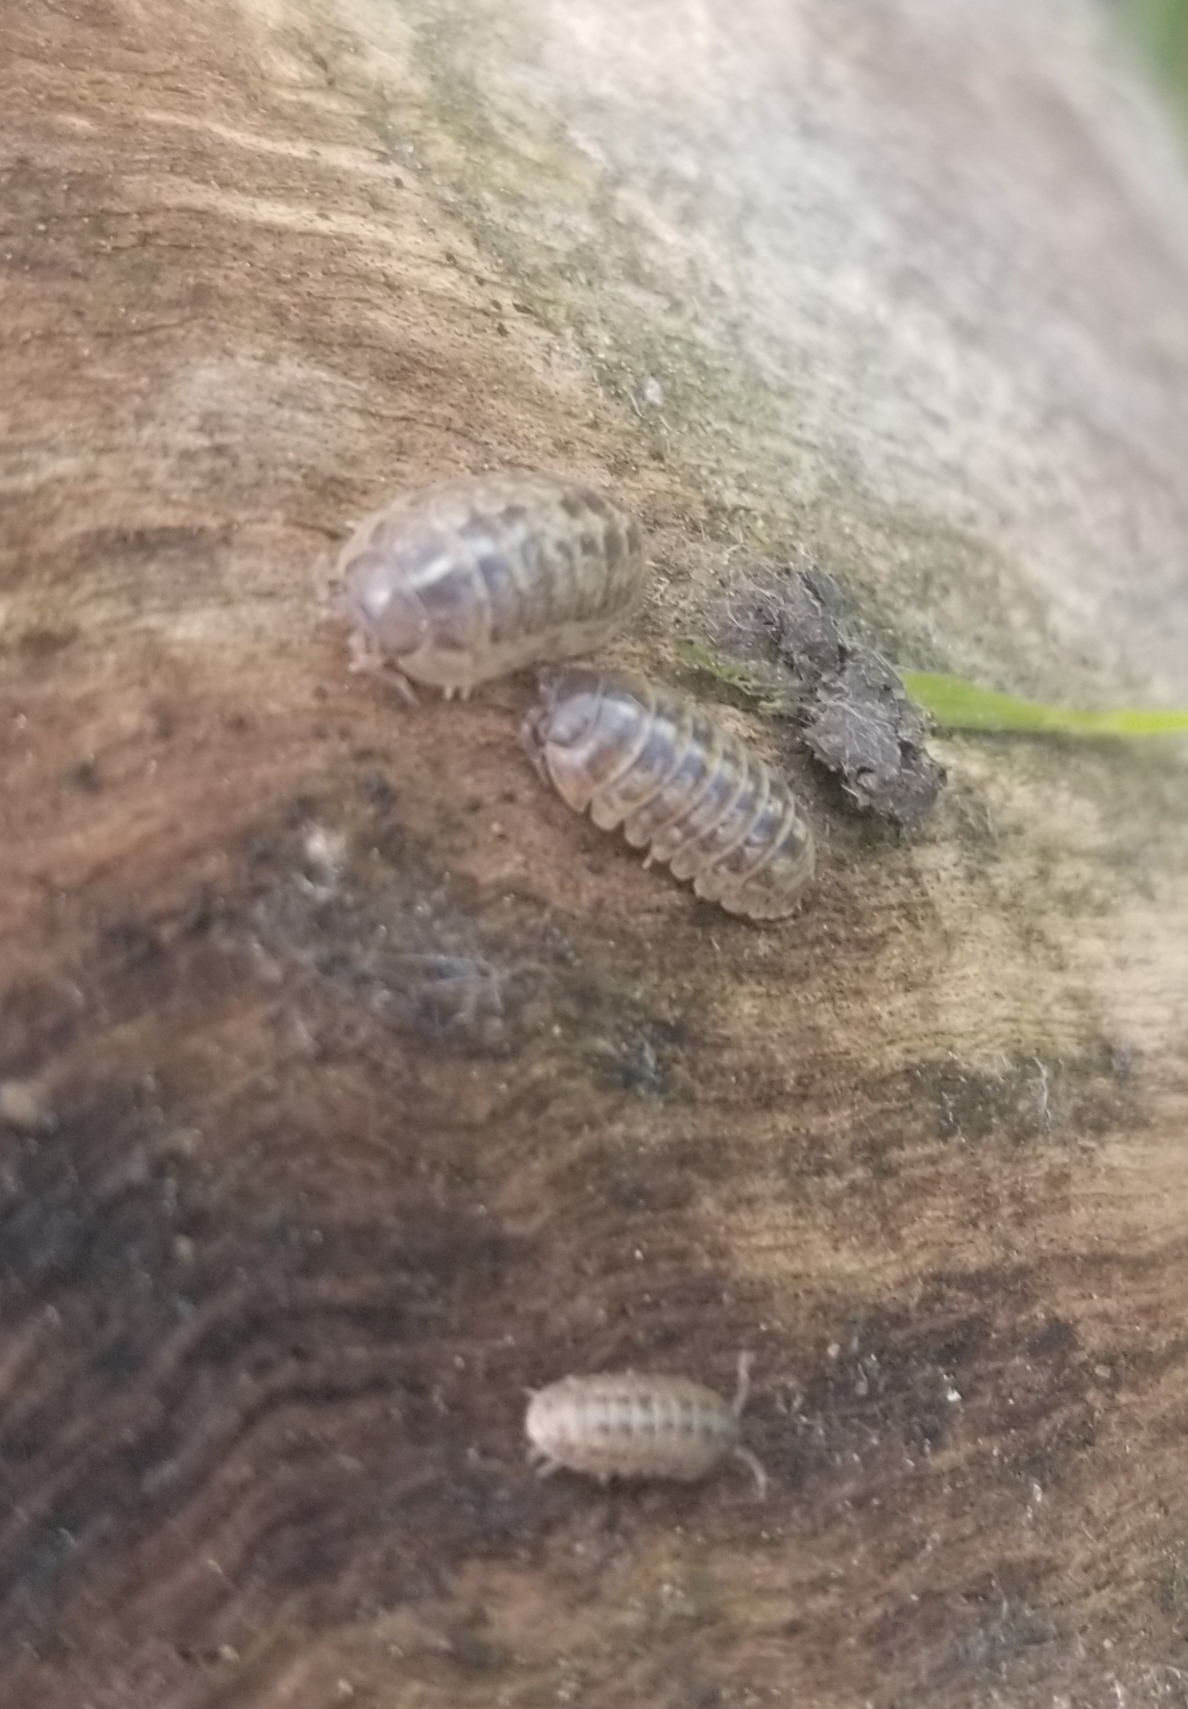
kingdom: Animalia
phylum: Arthropoda
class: Malacostraca
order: Isopoda
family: Armadillidiidae
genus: Armadillidium
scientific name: Armadillidium vulgare
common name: Common pill woodlouse
